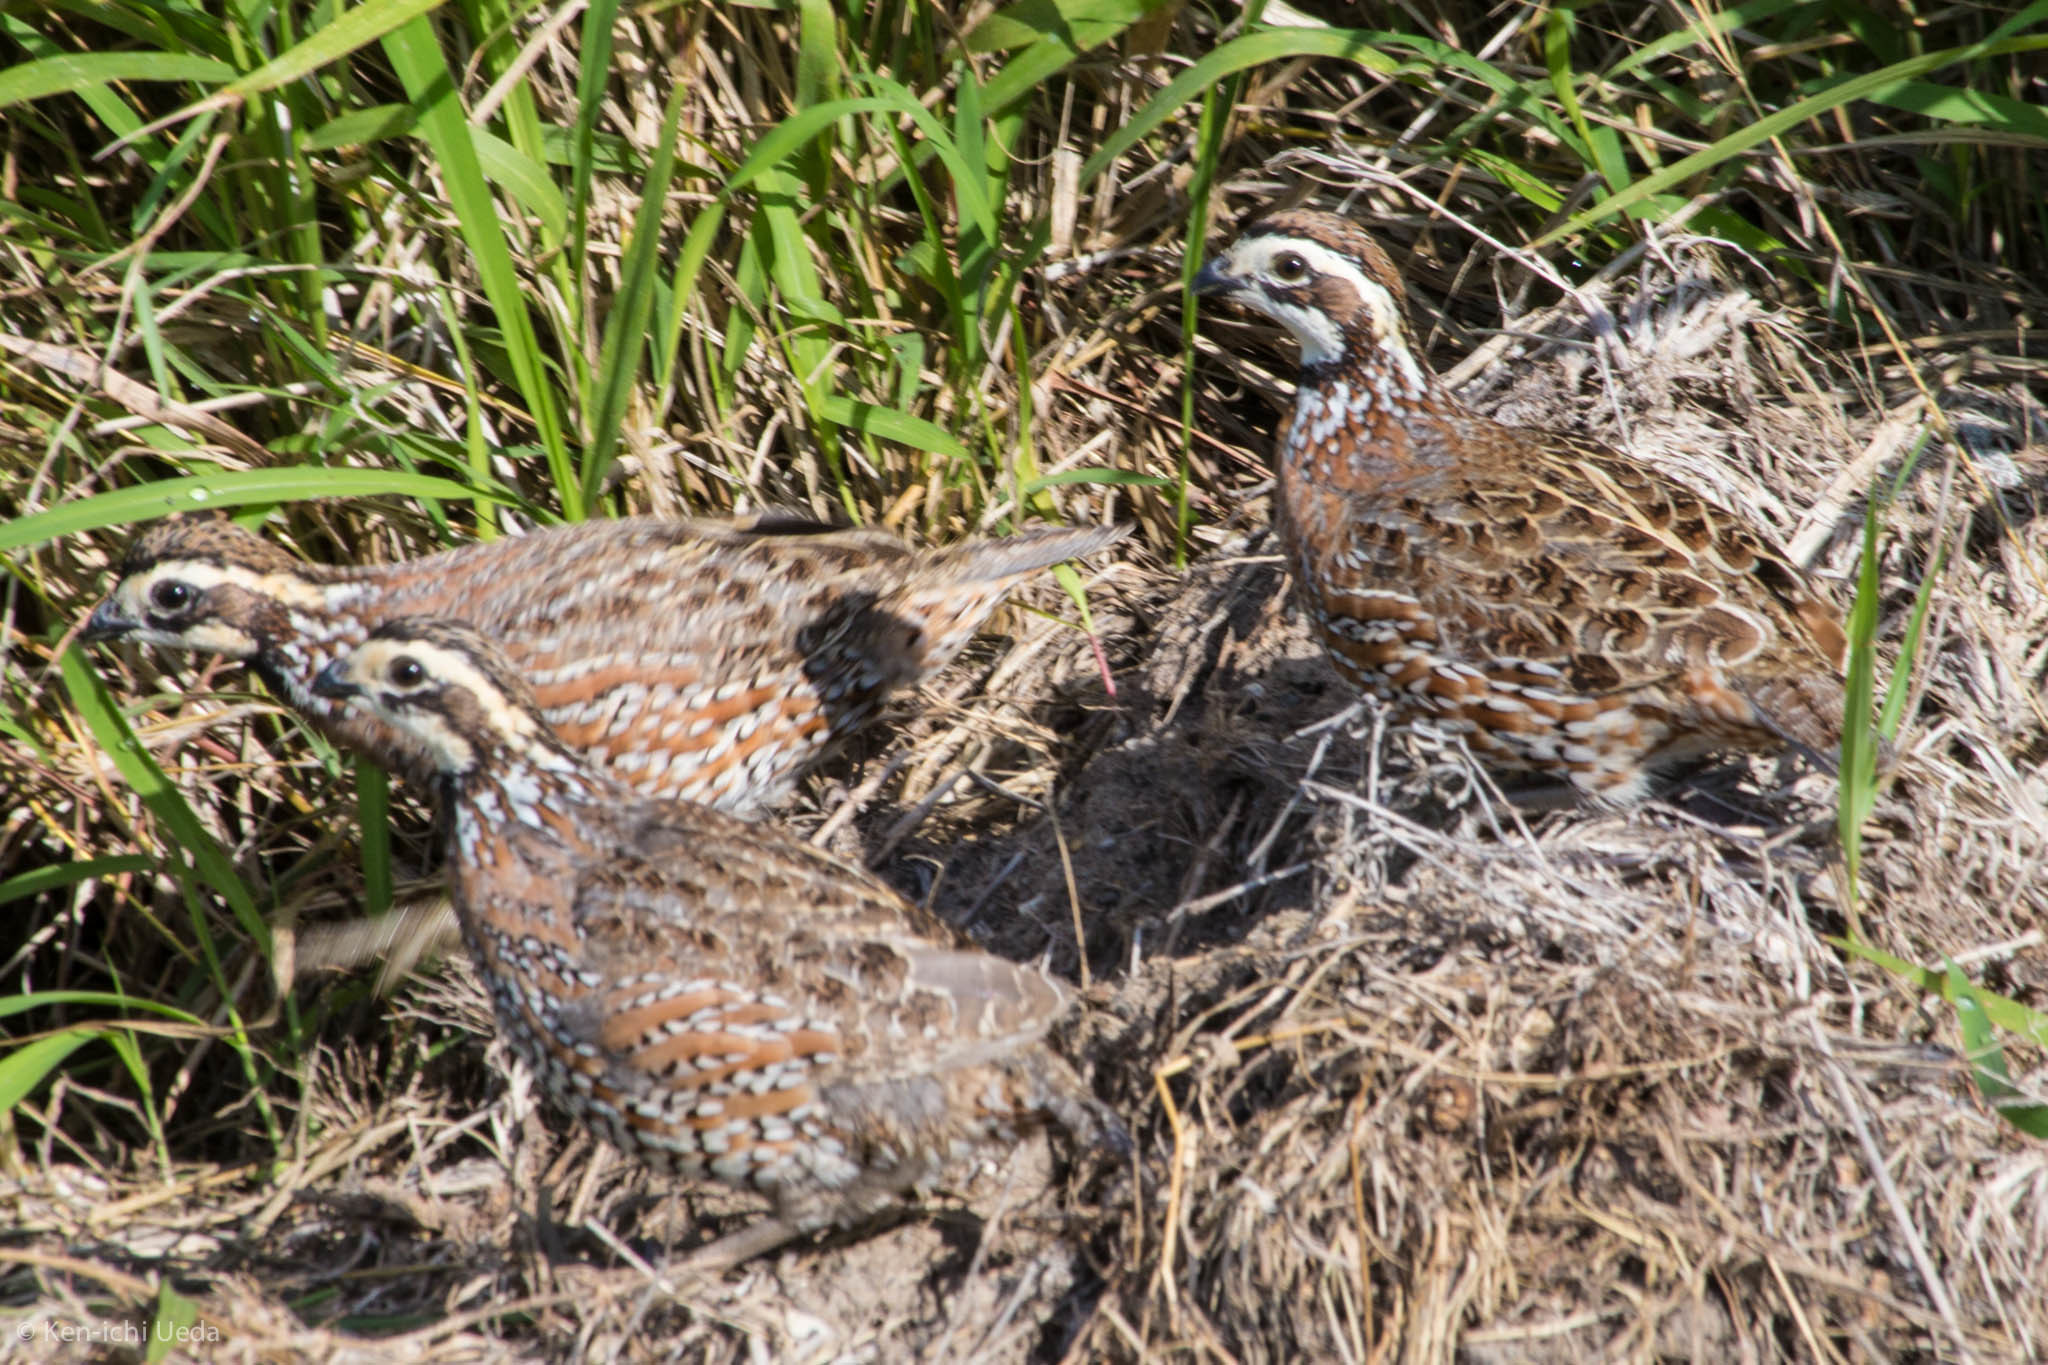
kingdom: Animalia
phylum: Chordata
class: Aves
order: Galliformes
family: Odontophoridae
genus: Colinus
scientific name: Colinus virginianus
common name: Northern bobwhite
